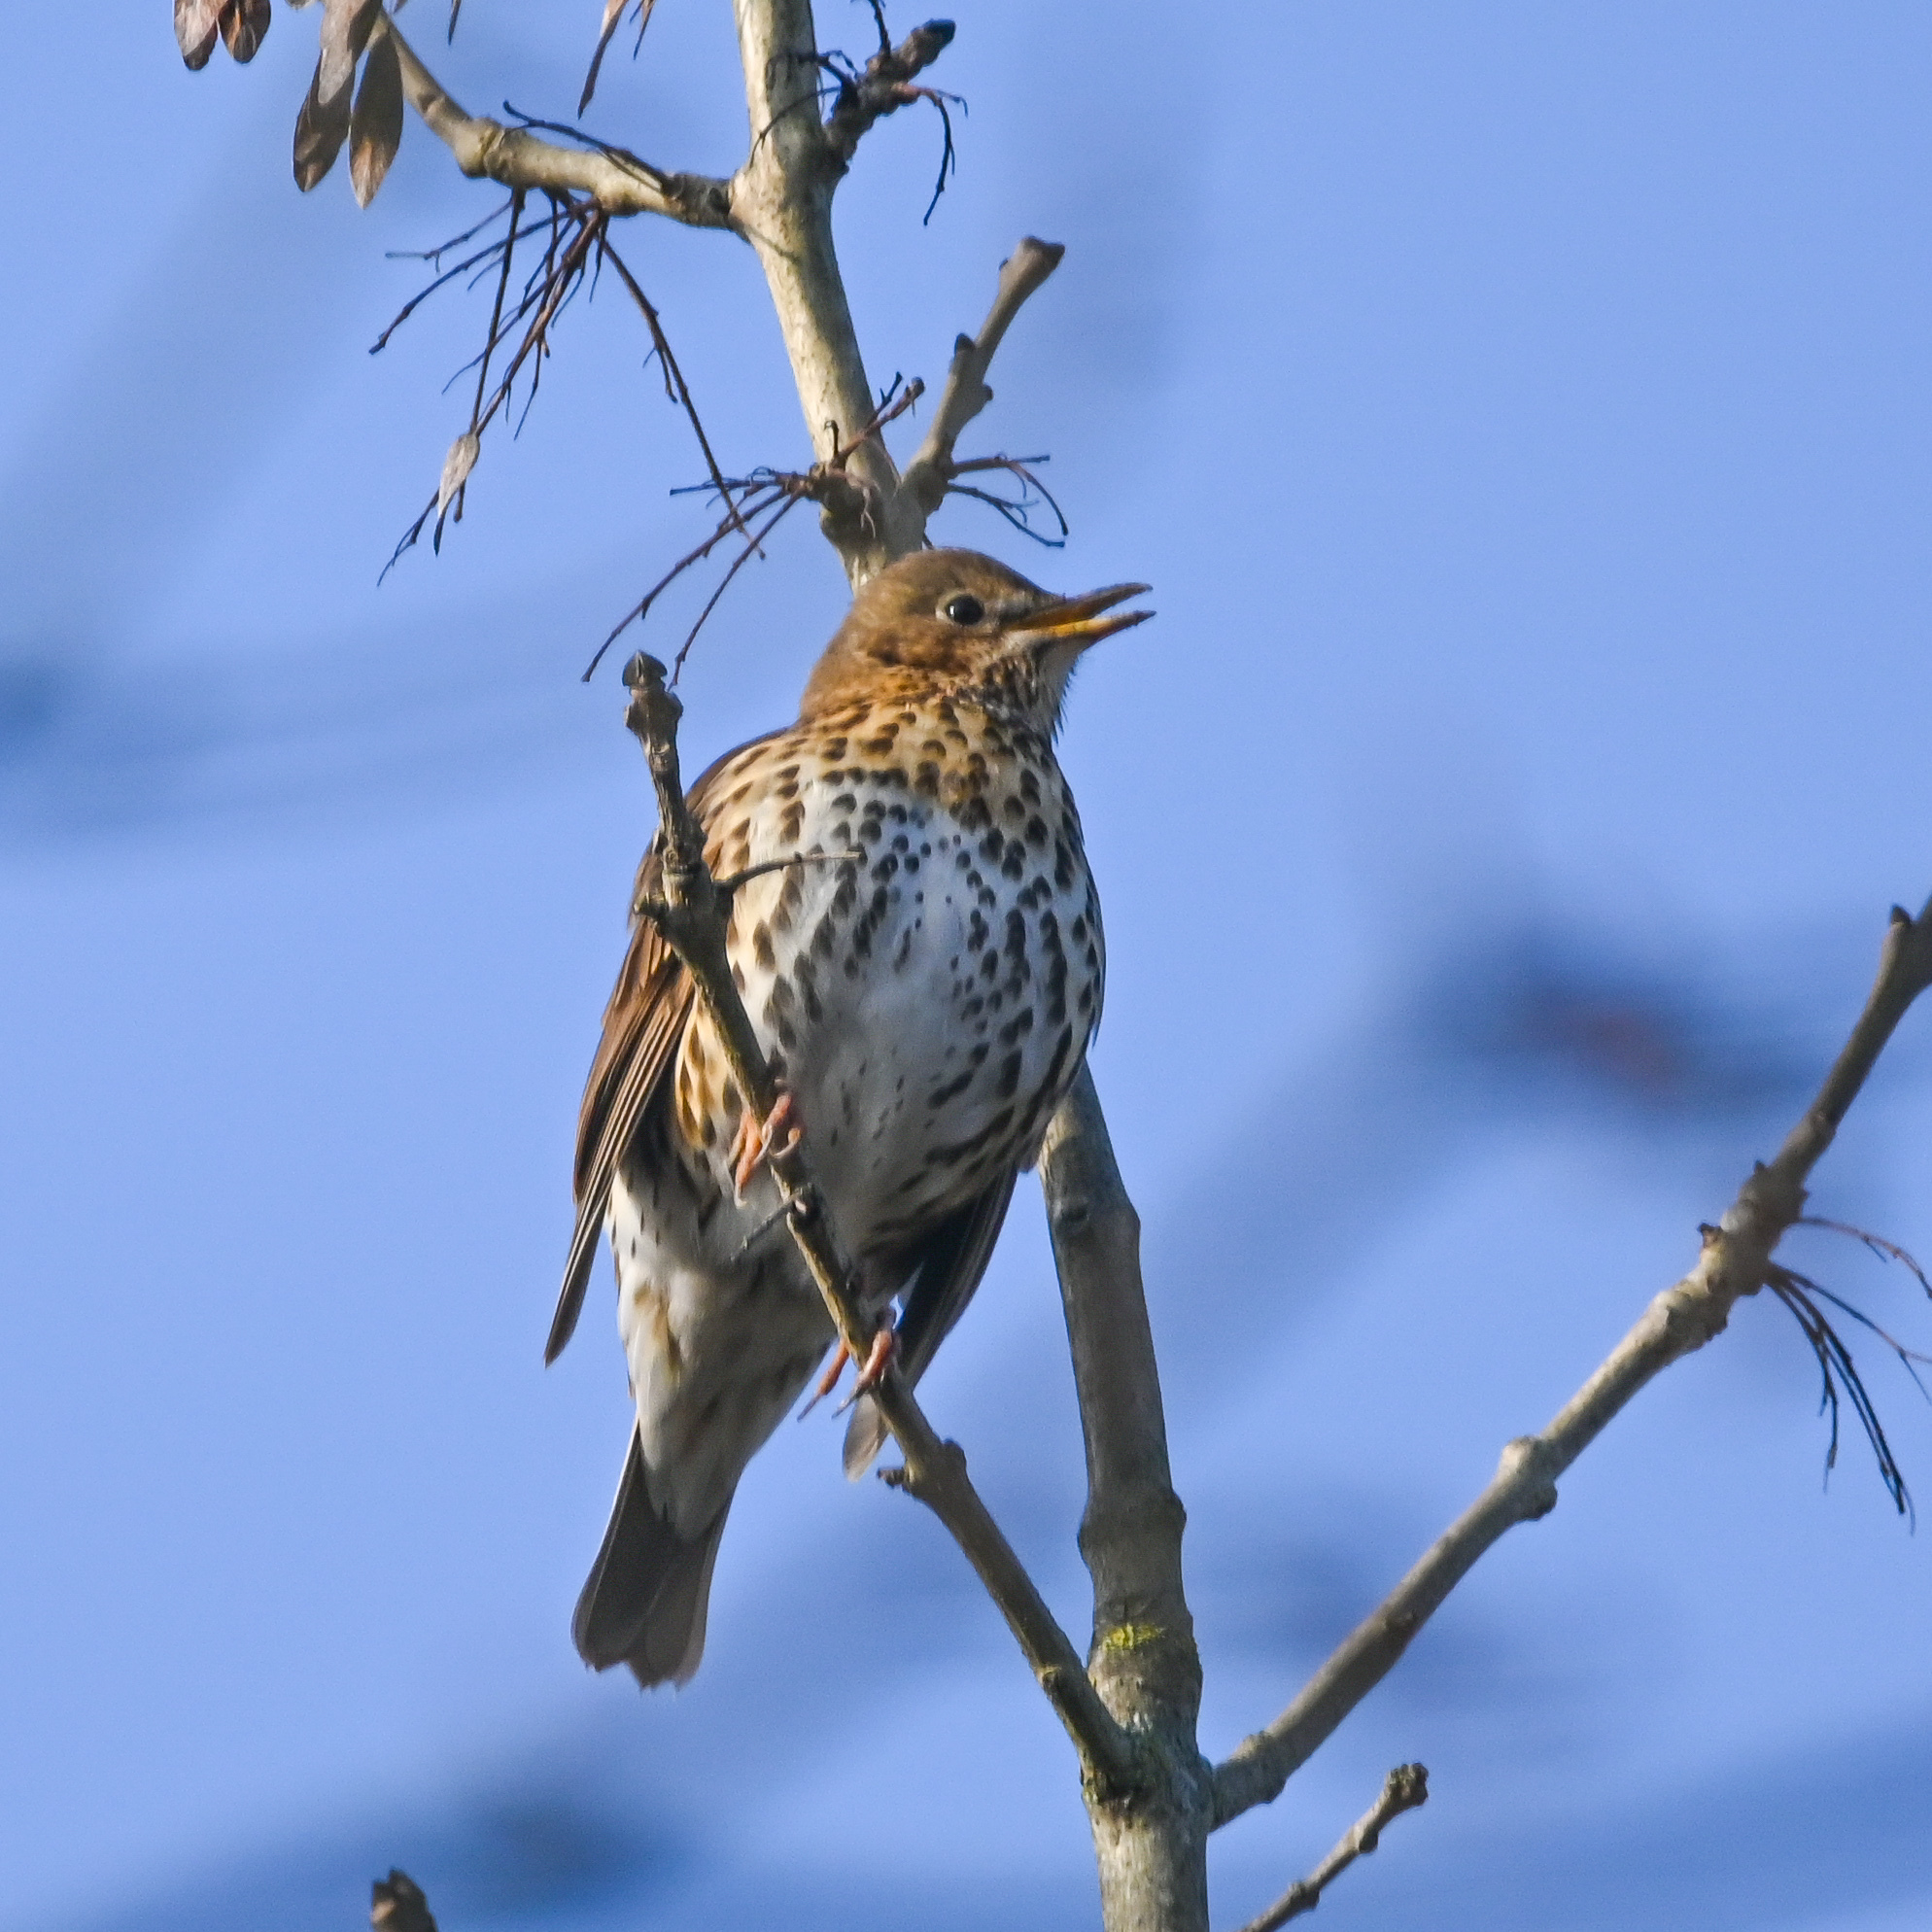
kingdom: Animalia
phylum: Chordata
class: Aves
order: Passeriformes
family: Turdidae
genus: Turdus
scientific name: Turdus philomelos
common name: Song thrush
